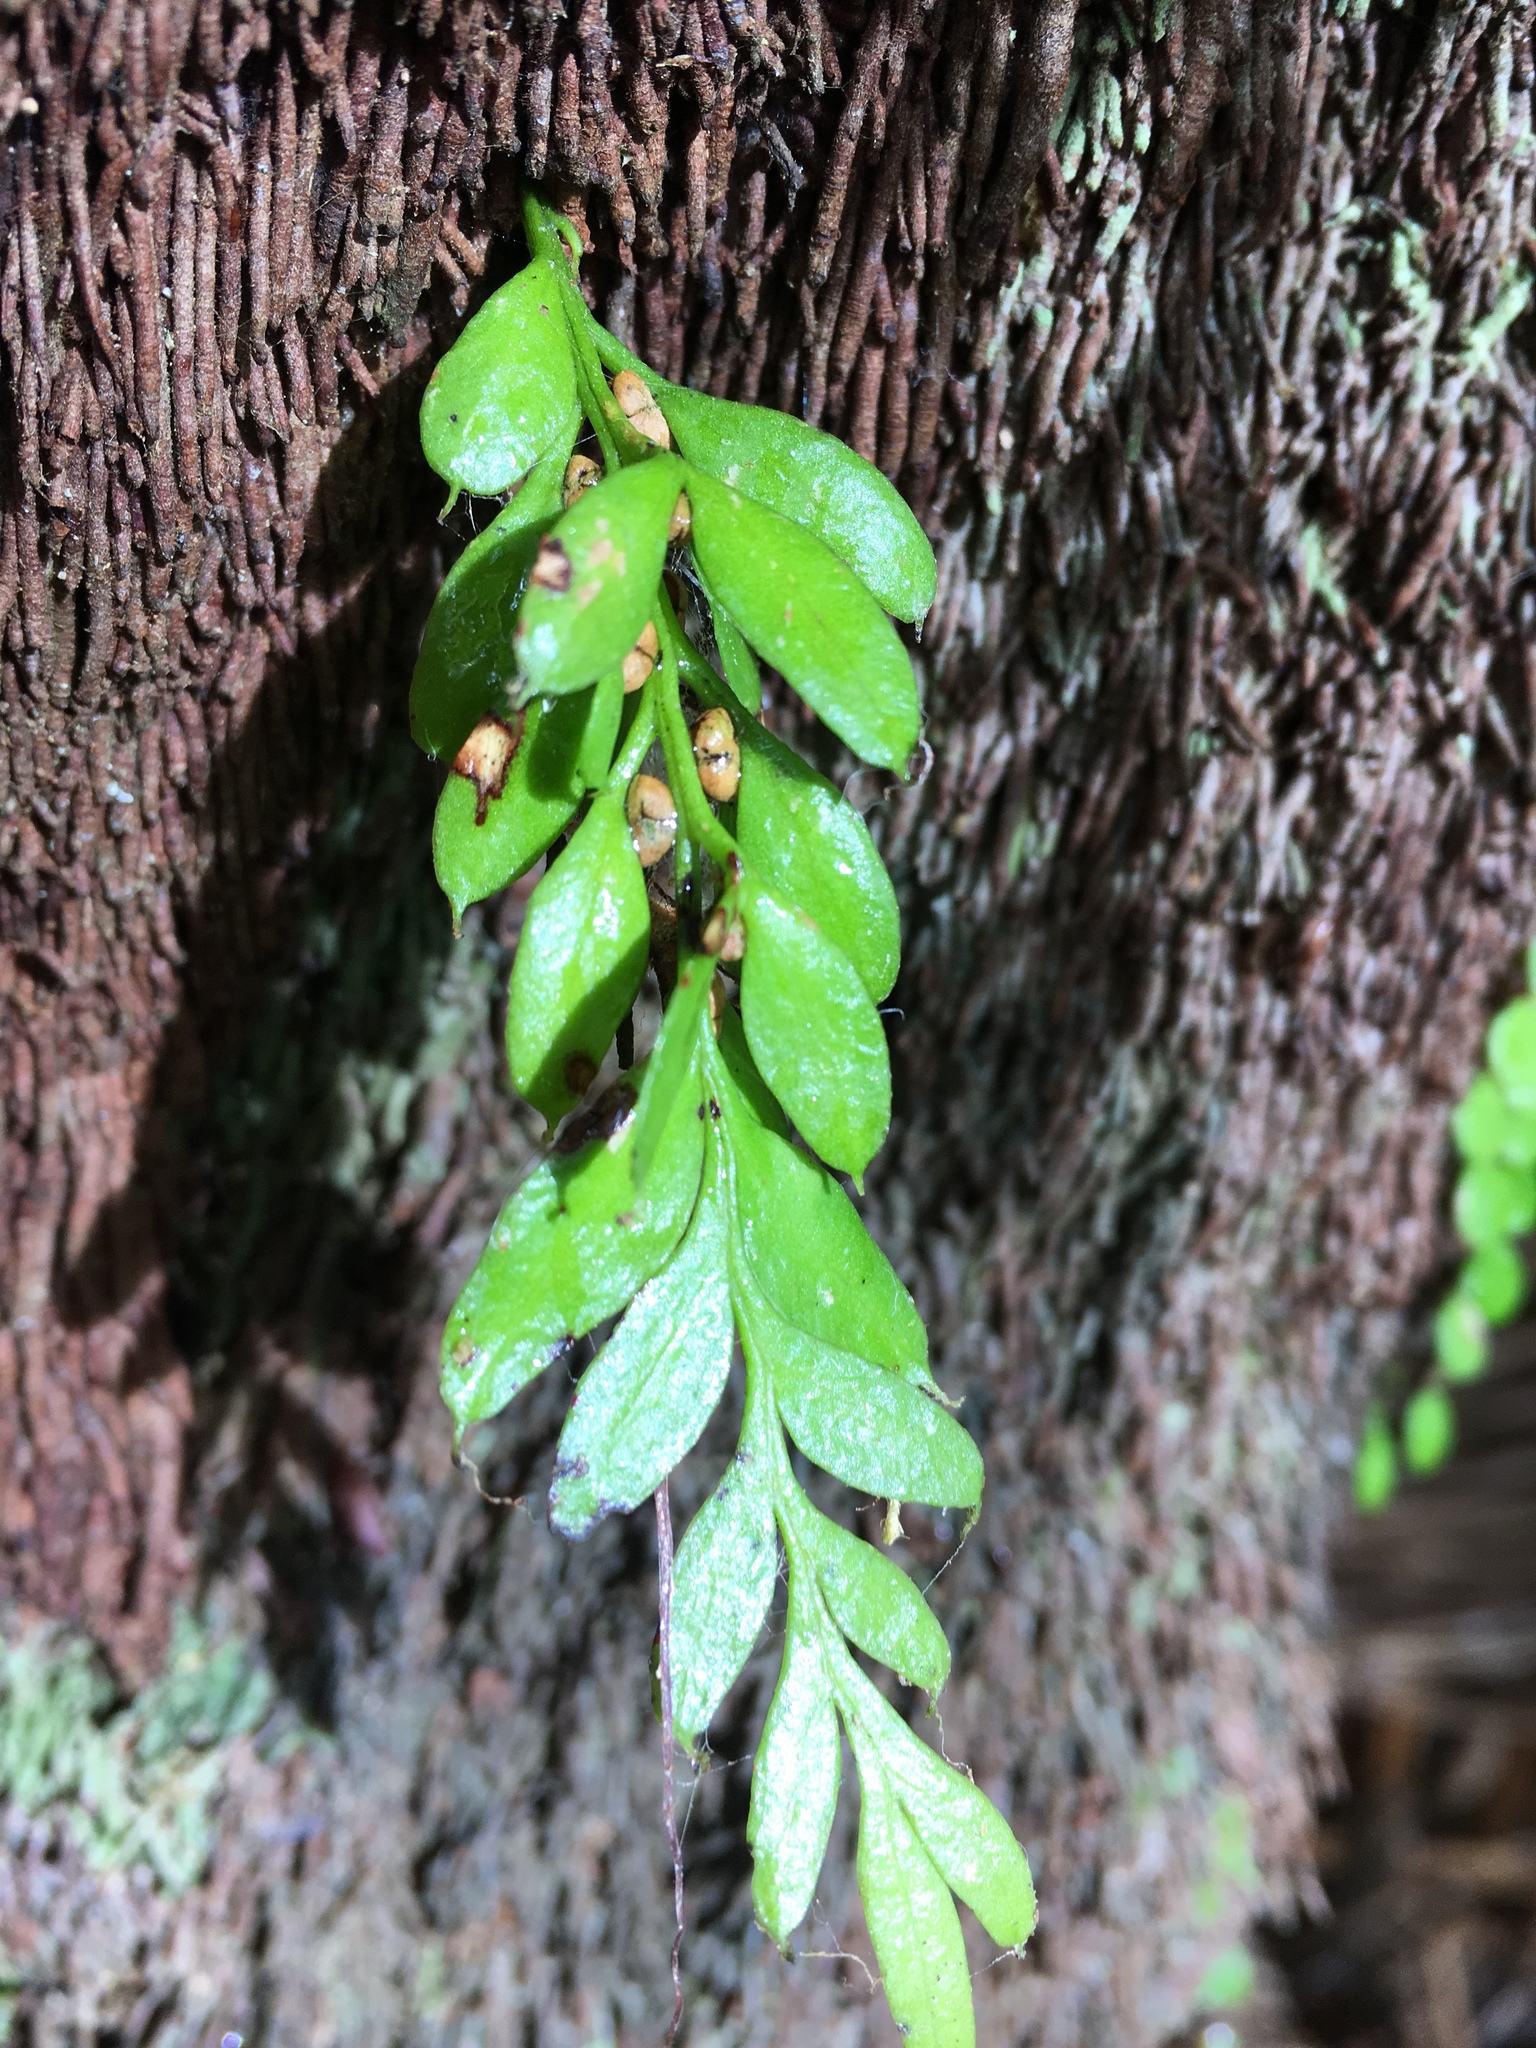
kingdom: Plantae
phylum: Tracheophyta
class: Polypodiopsida
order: Psilotales
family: Psilotaceae
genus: Tmesipteris
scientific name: Tmesipteris lanceolata
